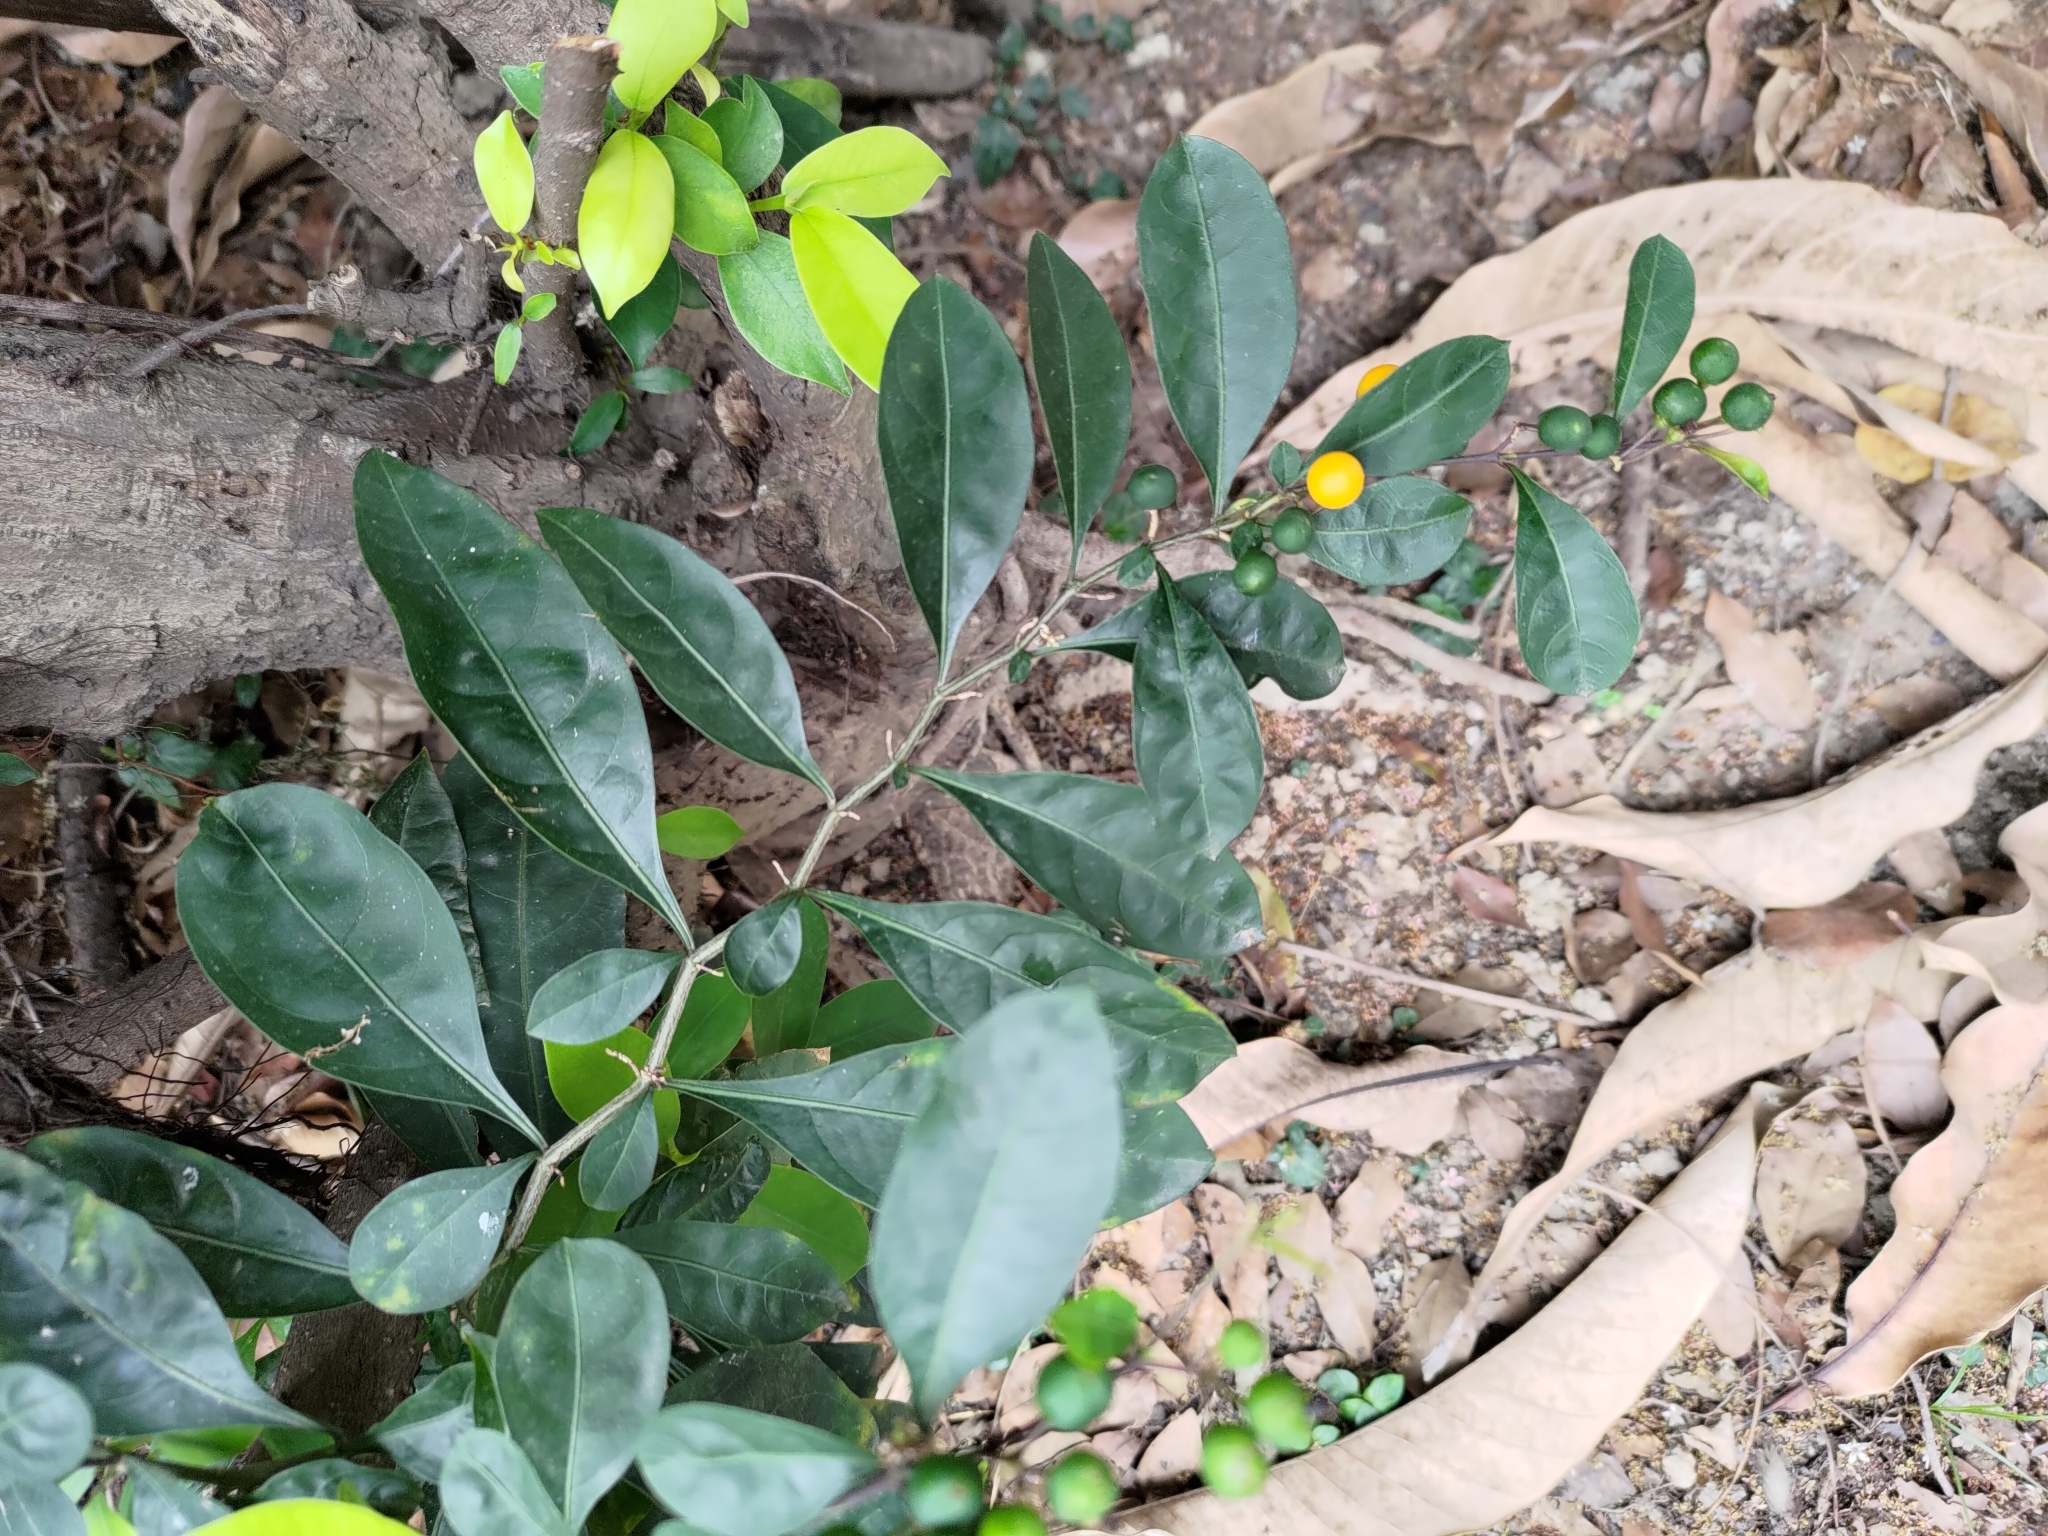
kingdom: Plantae
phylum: Tracheophyta
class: Magnoliopsida
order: Solanales
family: Solanaceae
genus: Solanum
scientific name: Solanum diphyllum
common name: Twoleaf nightshade
